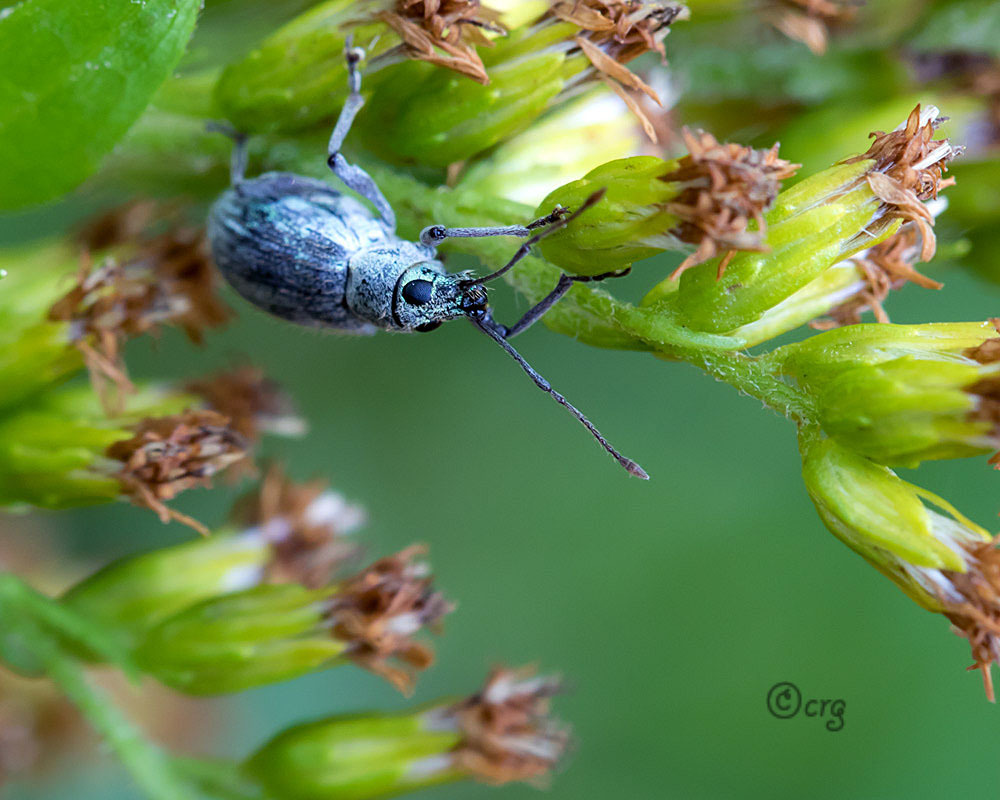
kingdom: Animalia
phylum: Arthropoda
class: Insecta
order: Coleoptera
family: Curculionidae
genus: Cyrtepistomus
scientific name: Cyrtepistomus castaneus
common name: Weevil
